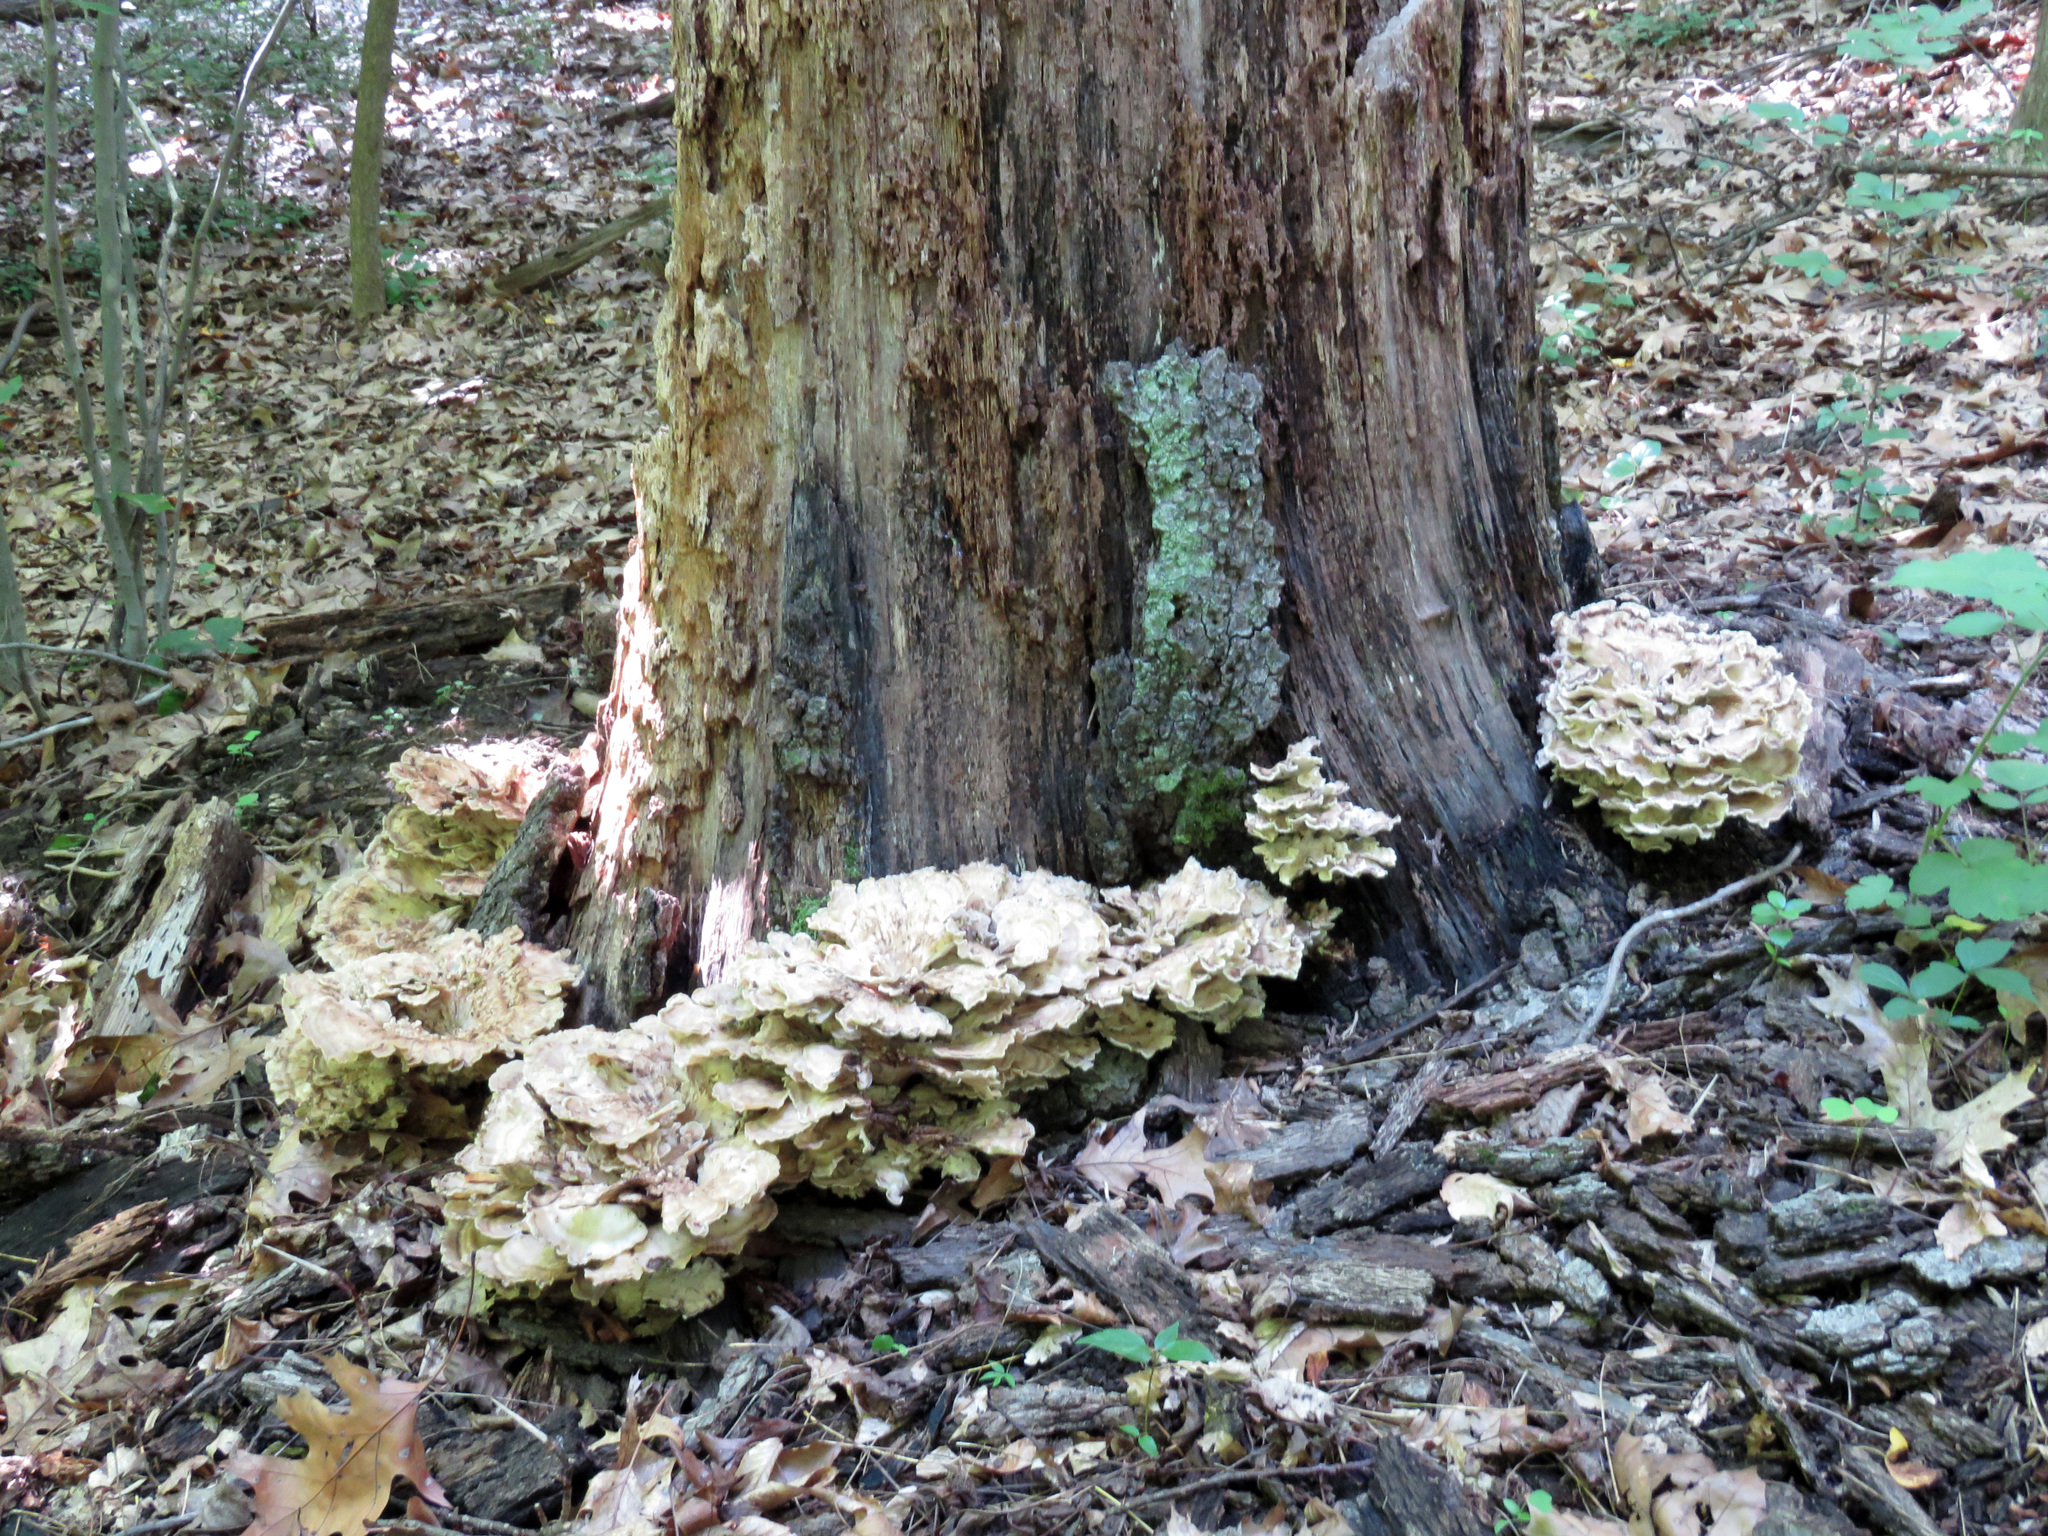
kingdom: Fungi
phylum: Basidiomycota
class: Agaricomycetes
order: Polyporales
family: Meripilaceae
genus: Meripilus
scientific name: Meripilus sumstinei
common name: Black-staining polypore
